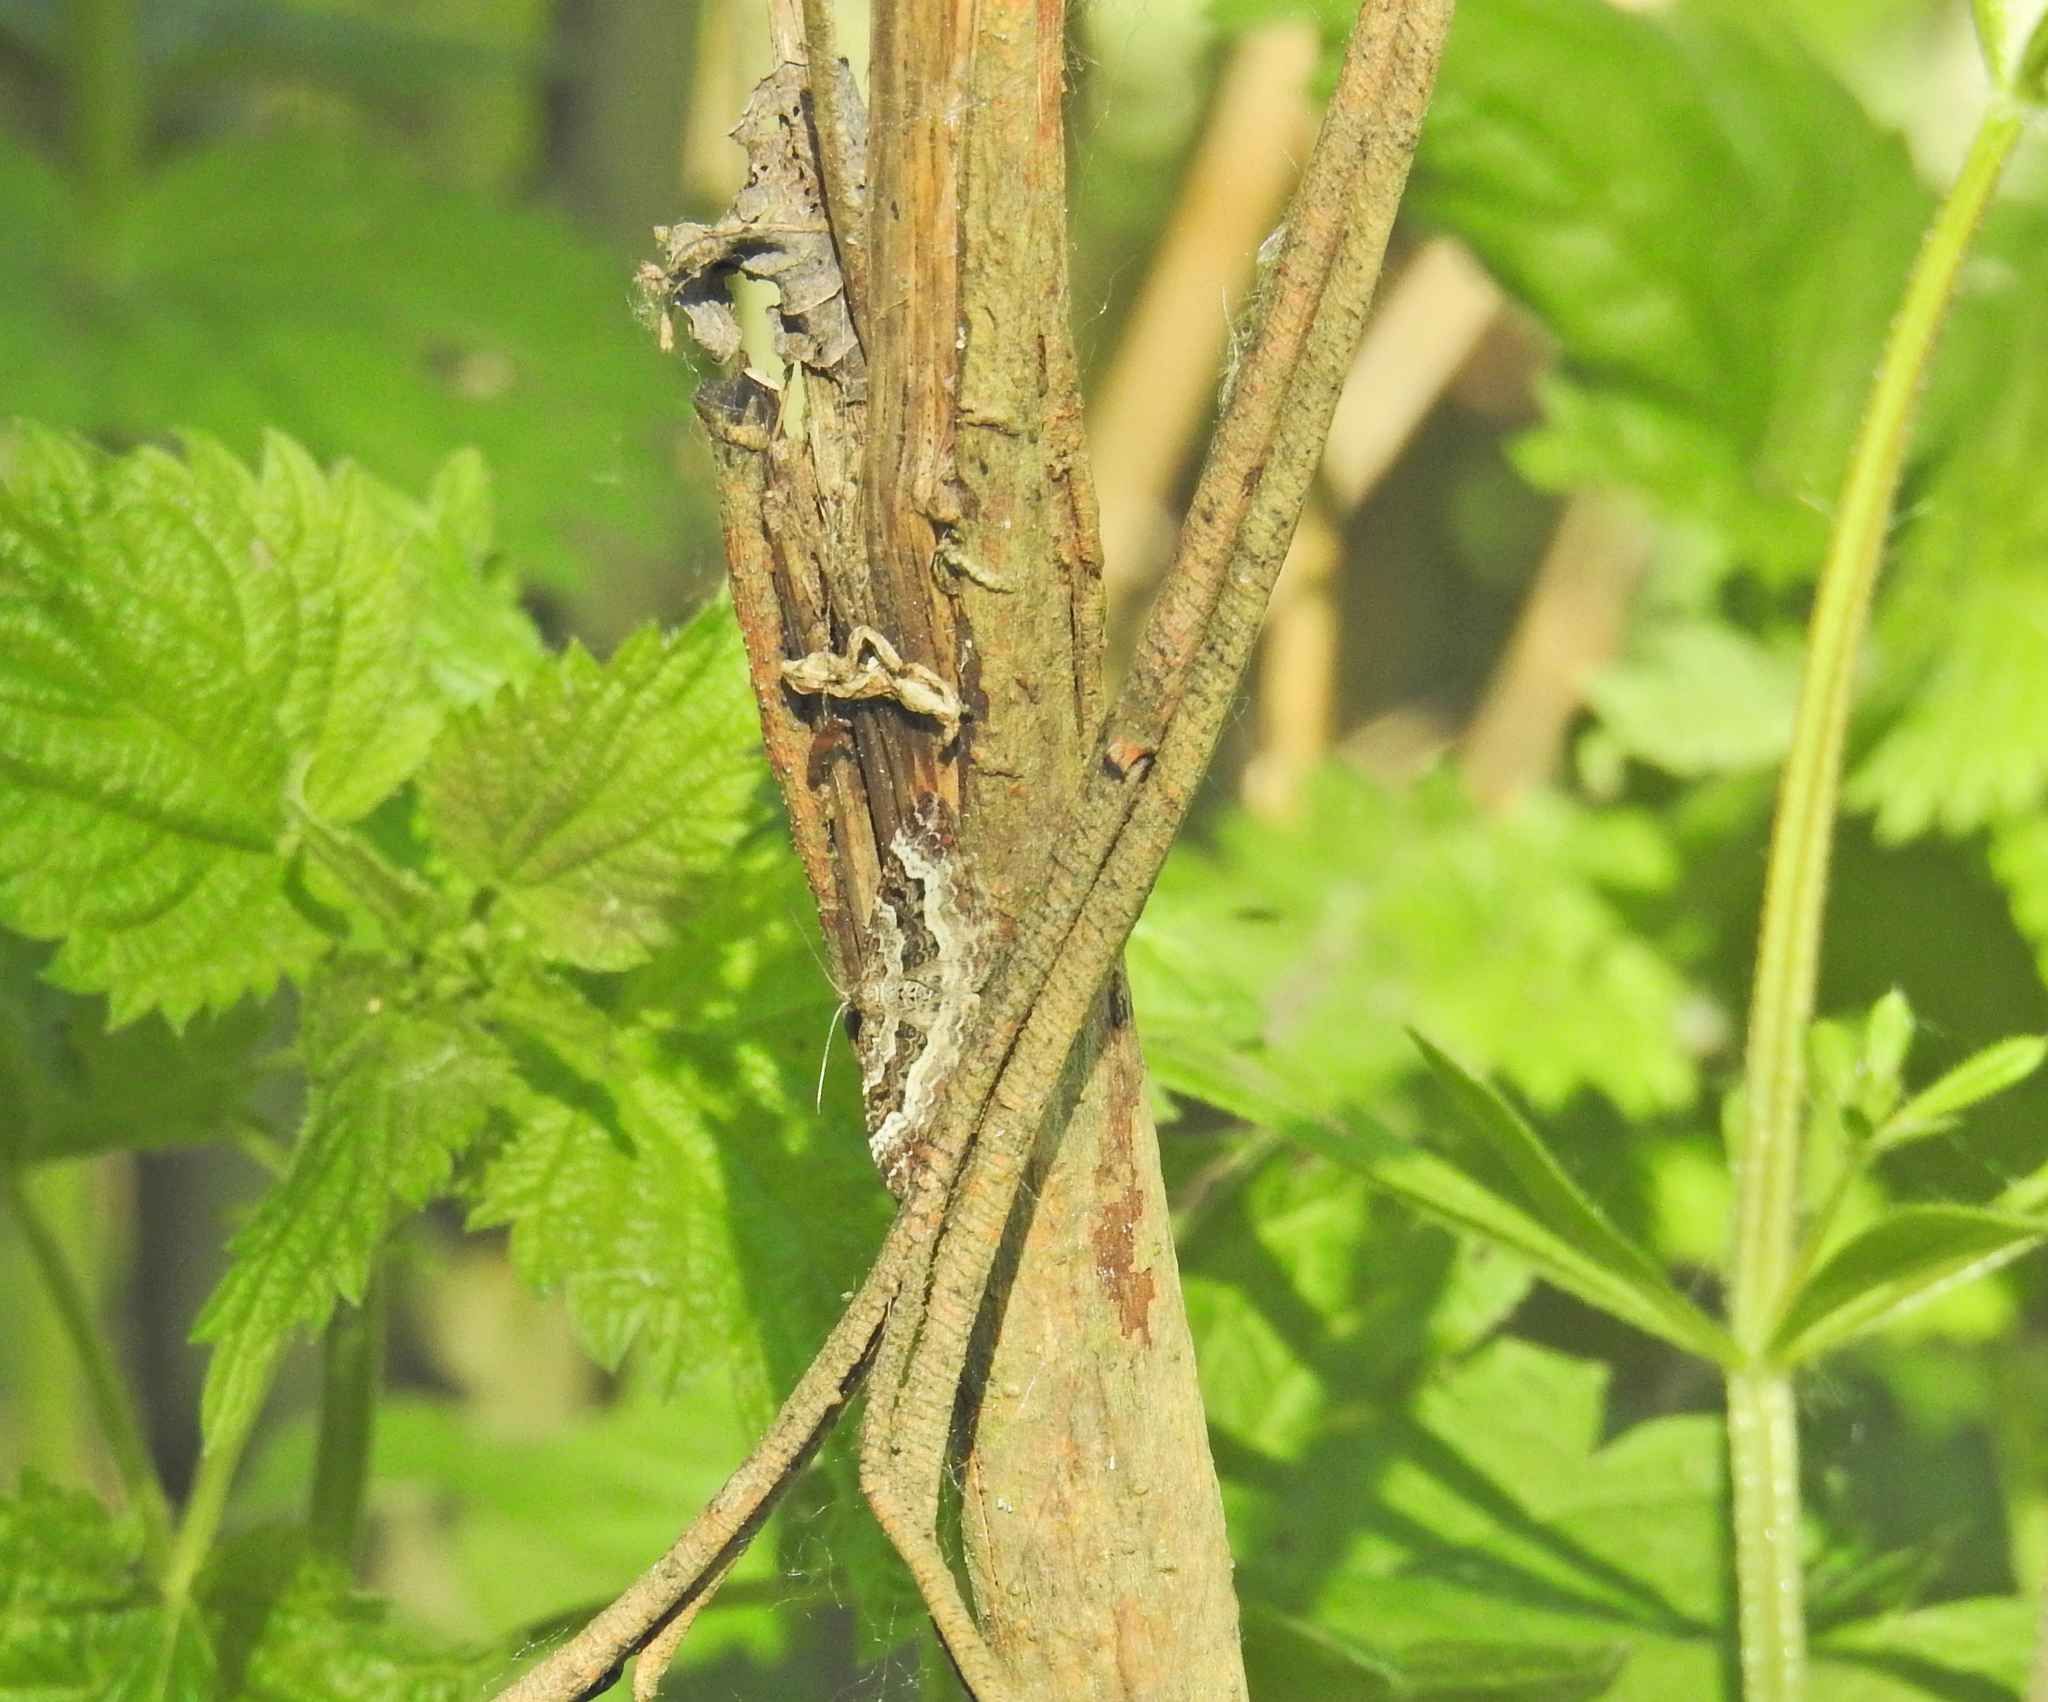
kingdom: Animalia
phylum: Arthropoda
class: Insecta
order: Lepidoptera
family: Geometridae
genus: Epirrhoe
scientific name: Epirrhoe alternata
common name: Common carpet
